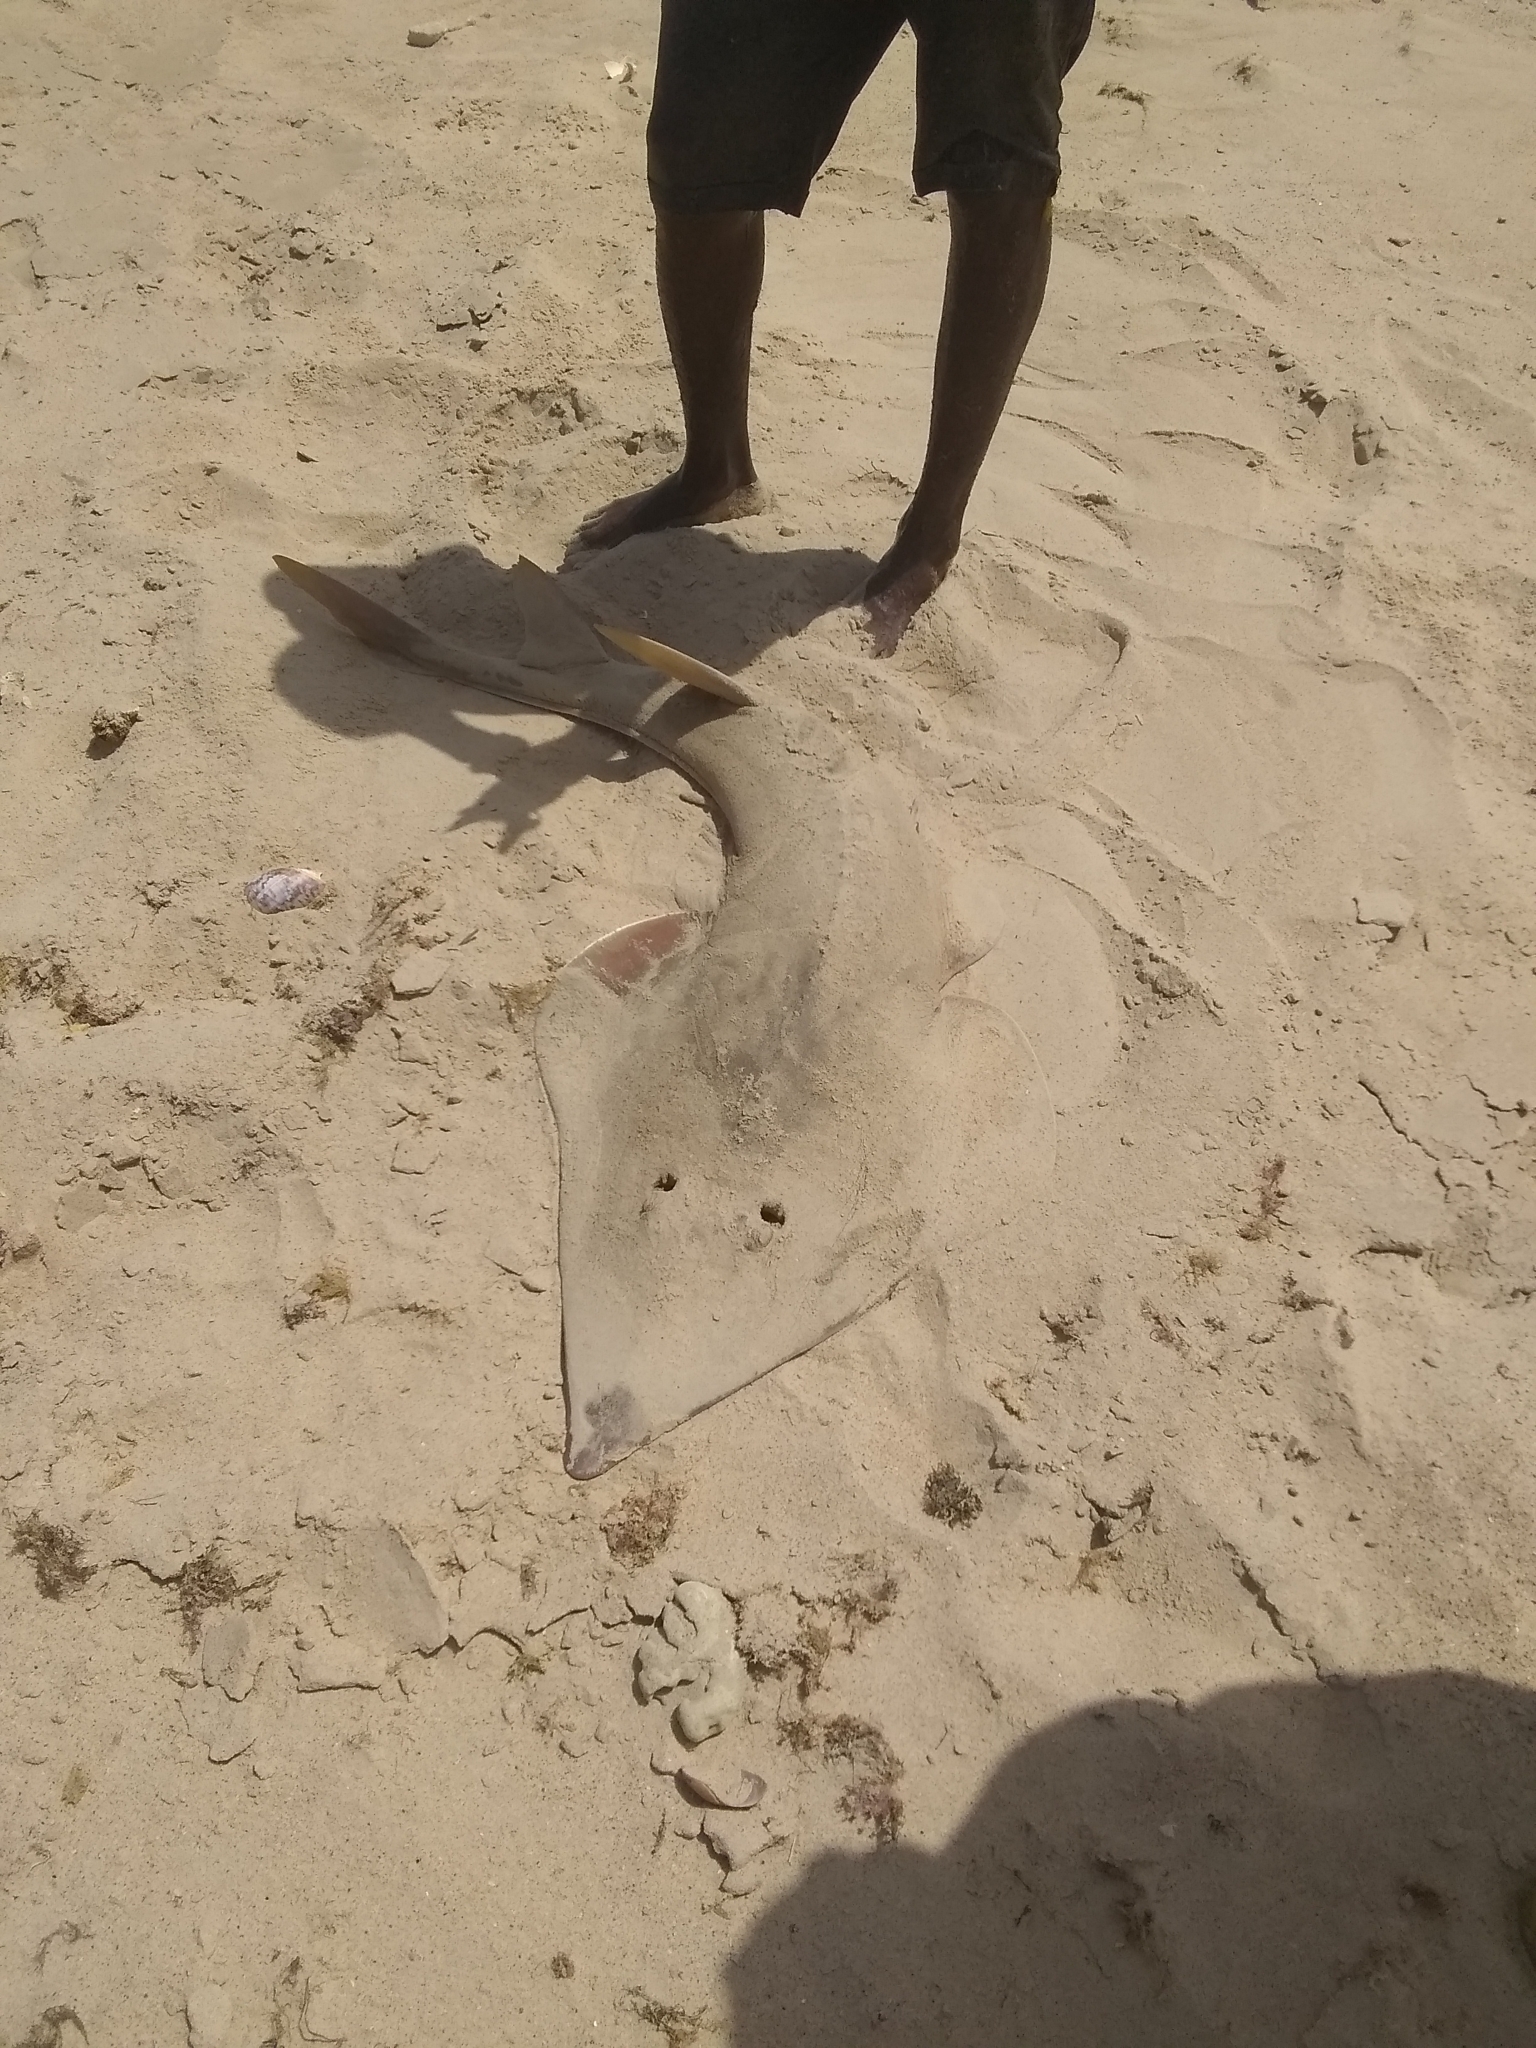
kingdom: Animalia
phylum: Chordata
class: Elasmobranchii
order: Rhinopristiformes
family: Glaucostegidae
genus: Glaucostegus
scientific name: Glaucostegus cemiculus
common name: Blackchin guitarfish
